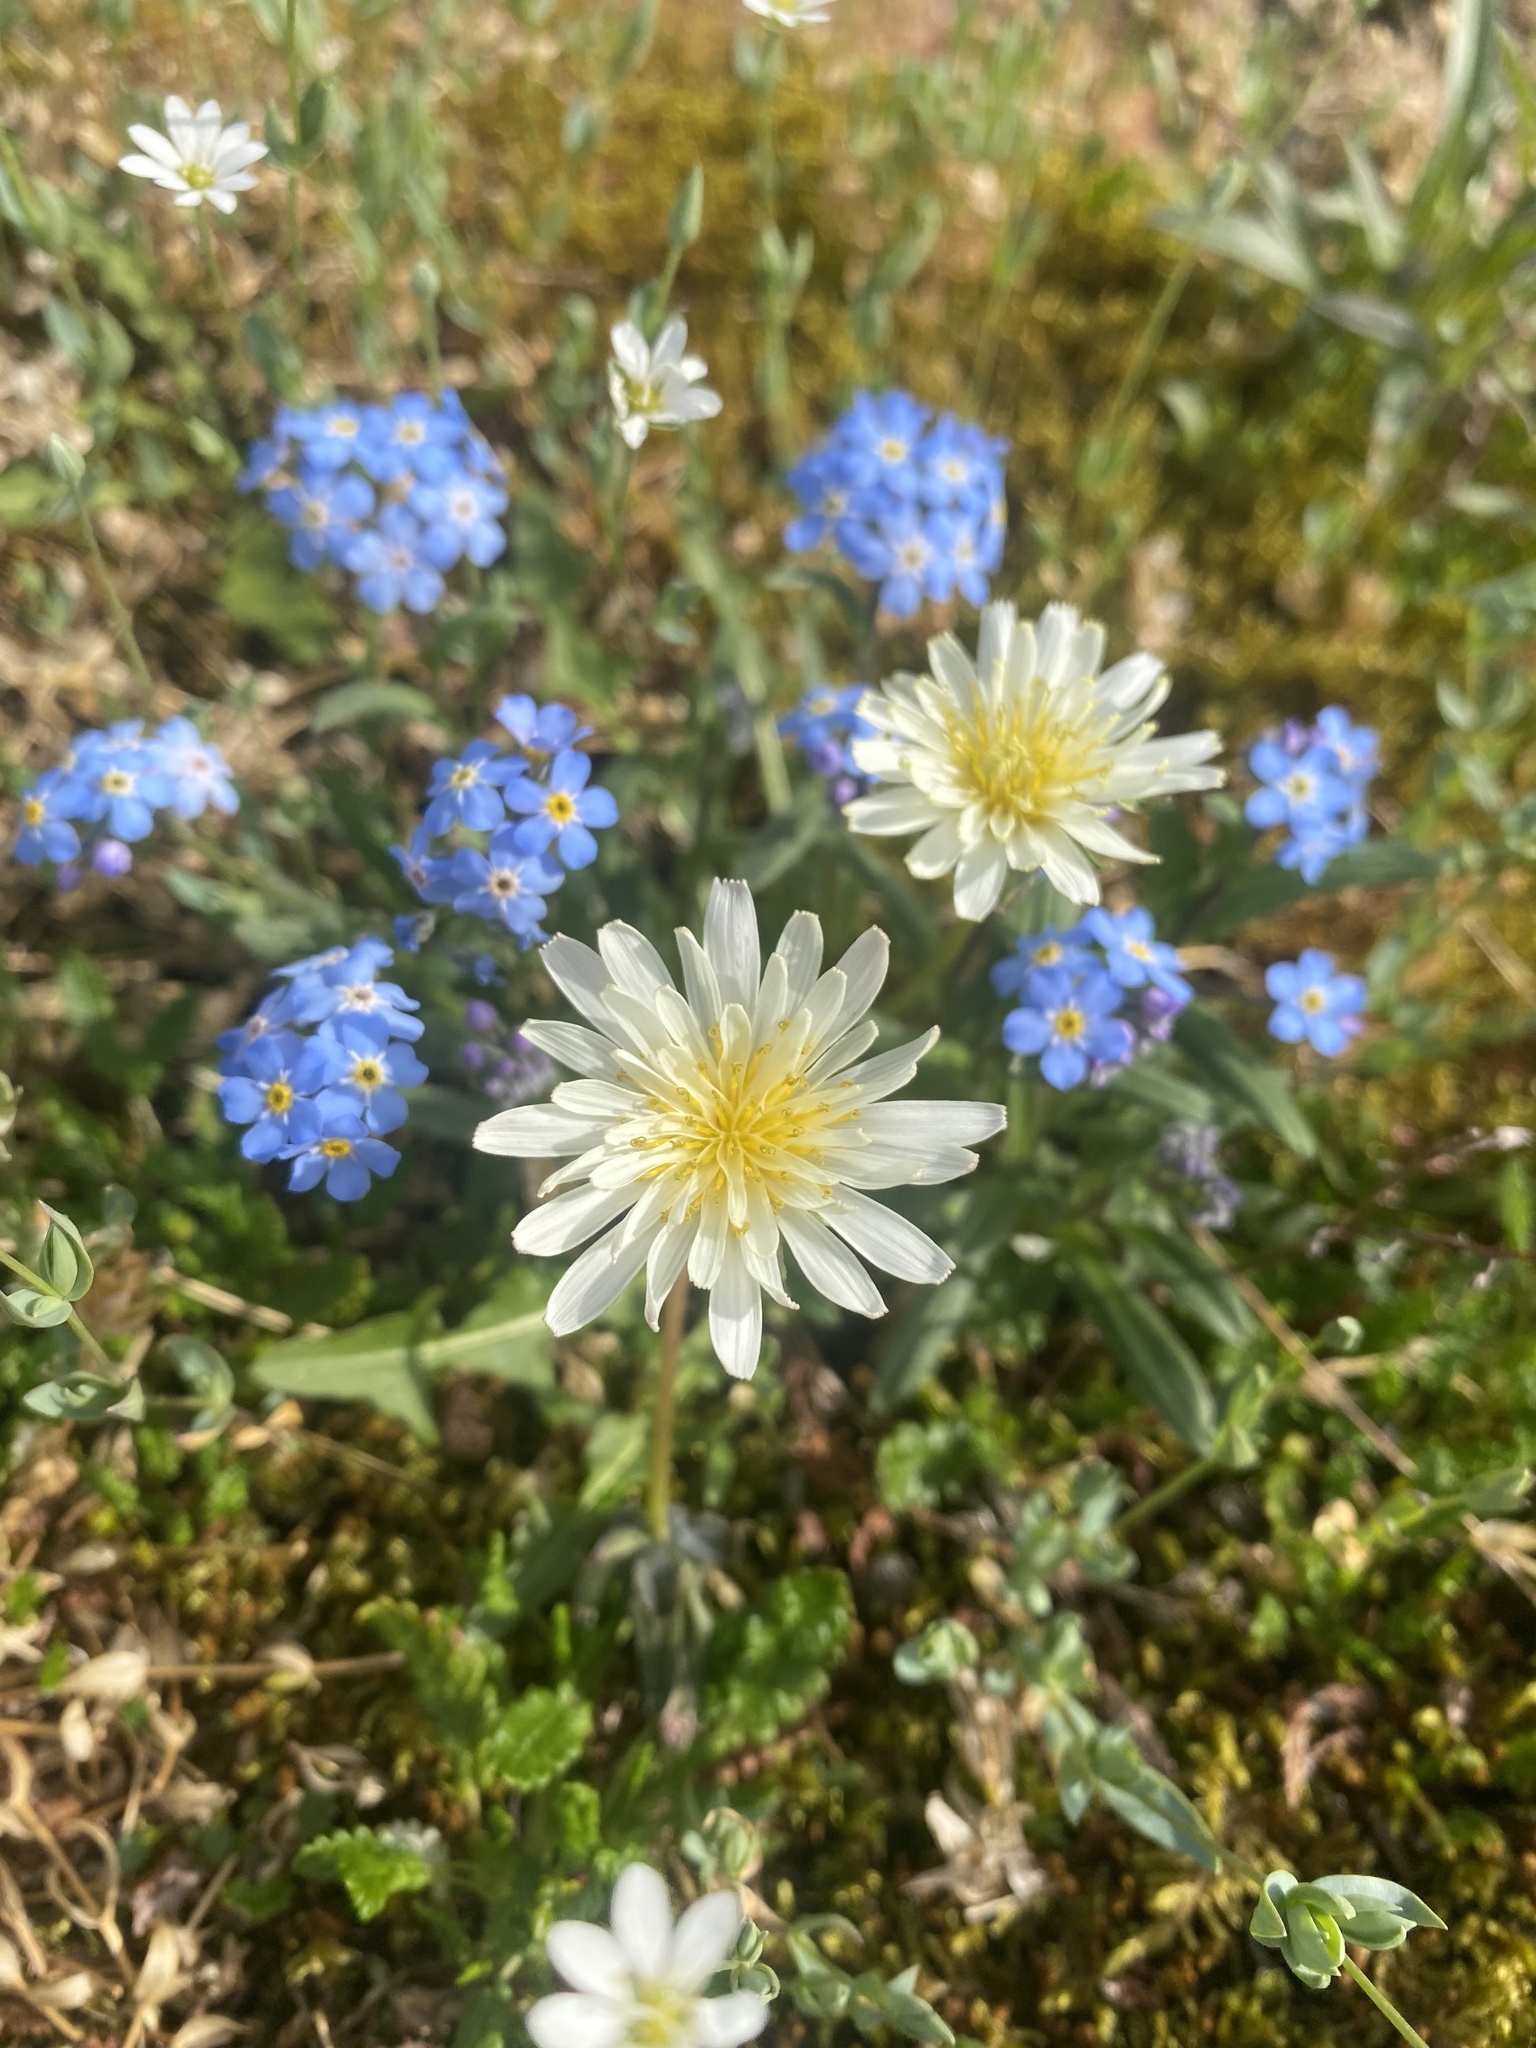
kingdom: Plantae
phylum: Tracheophyta
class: Magnoliopsida
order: Asterales
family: Asteraceae
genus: Taraxacum
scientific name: Taraxacum arcticum
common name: Arctic dandelion
